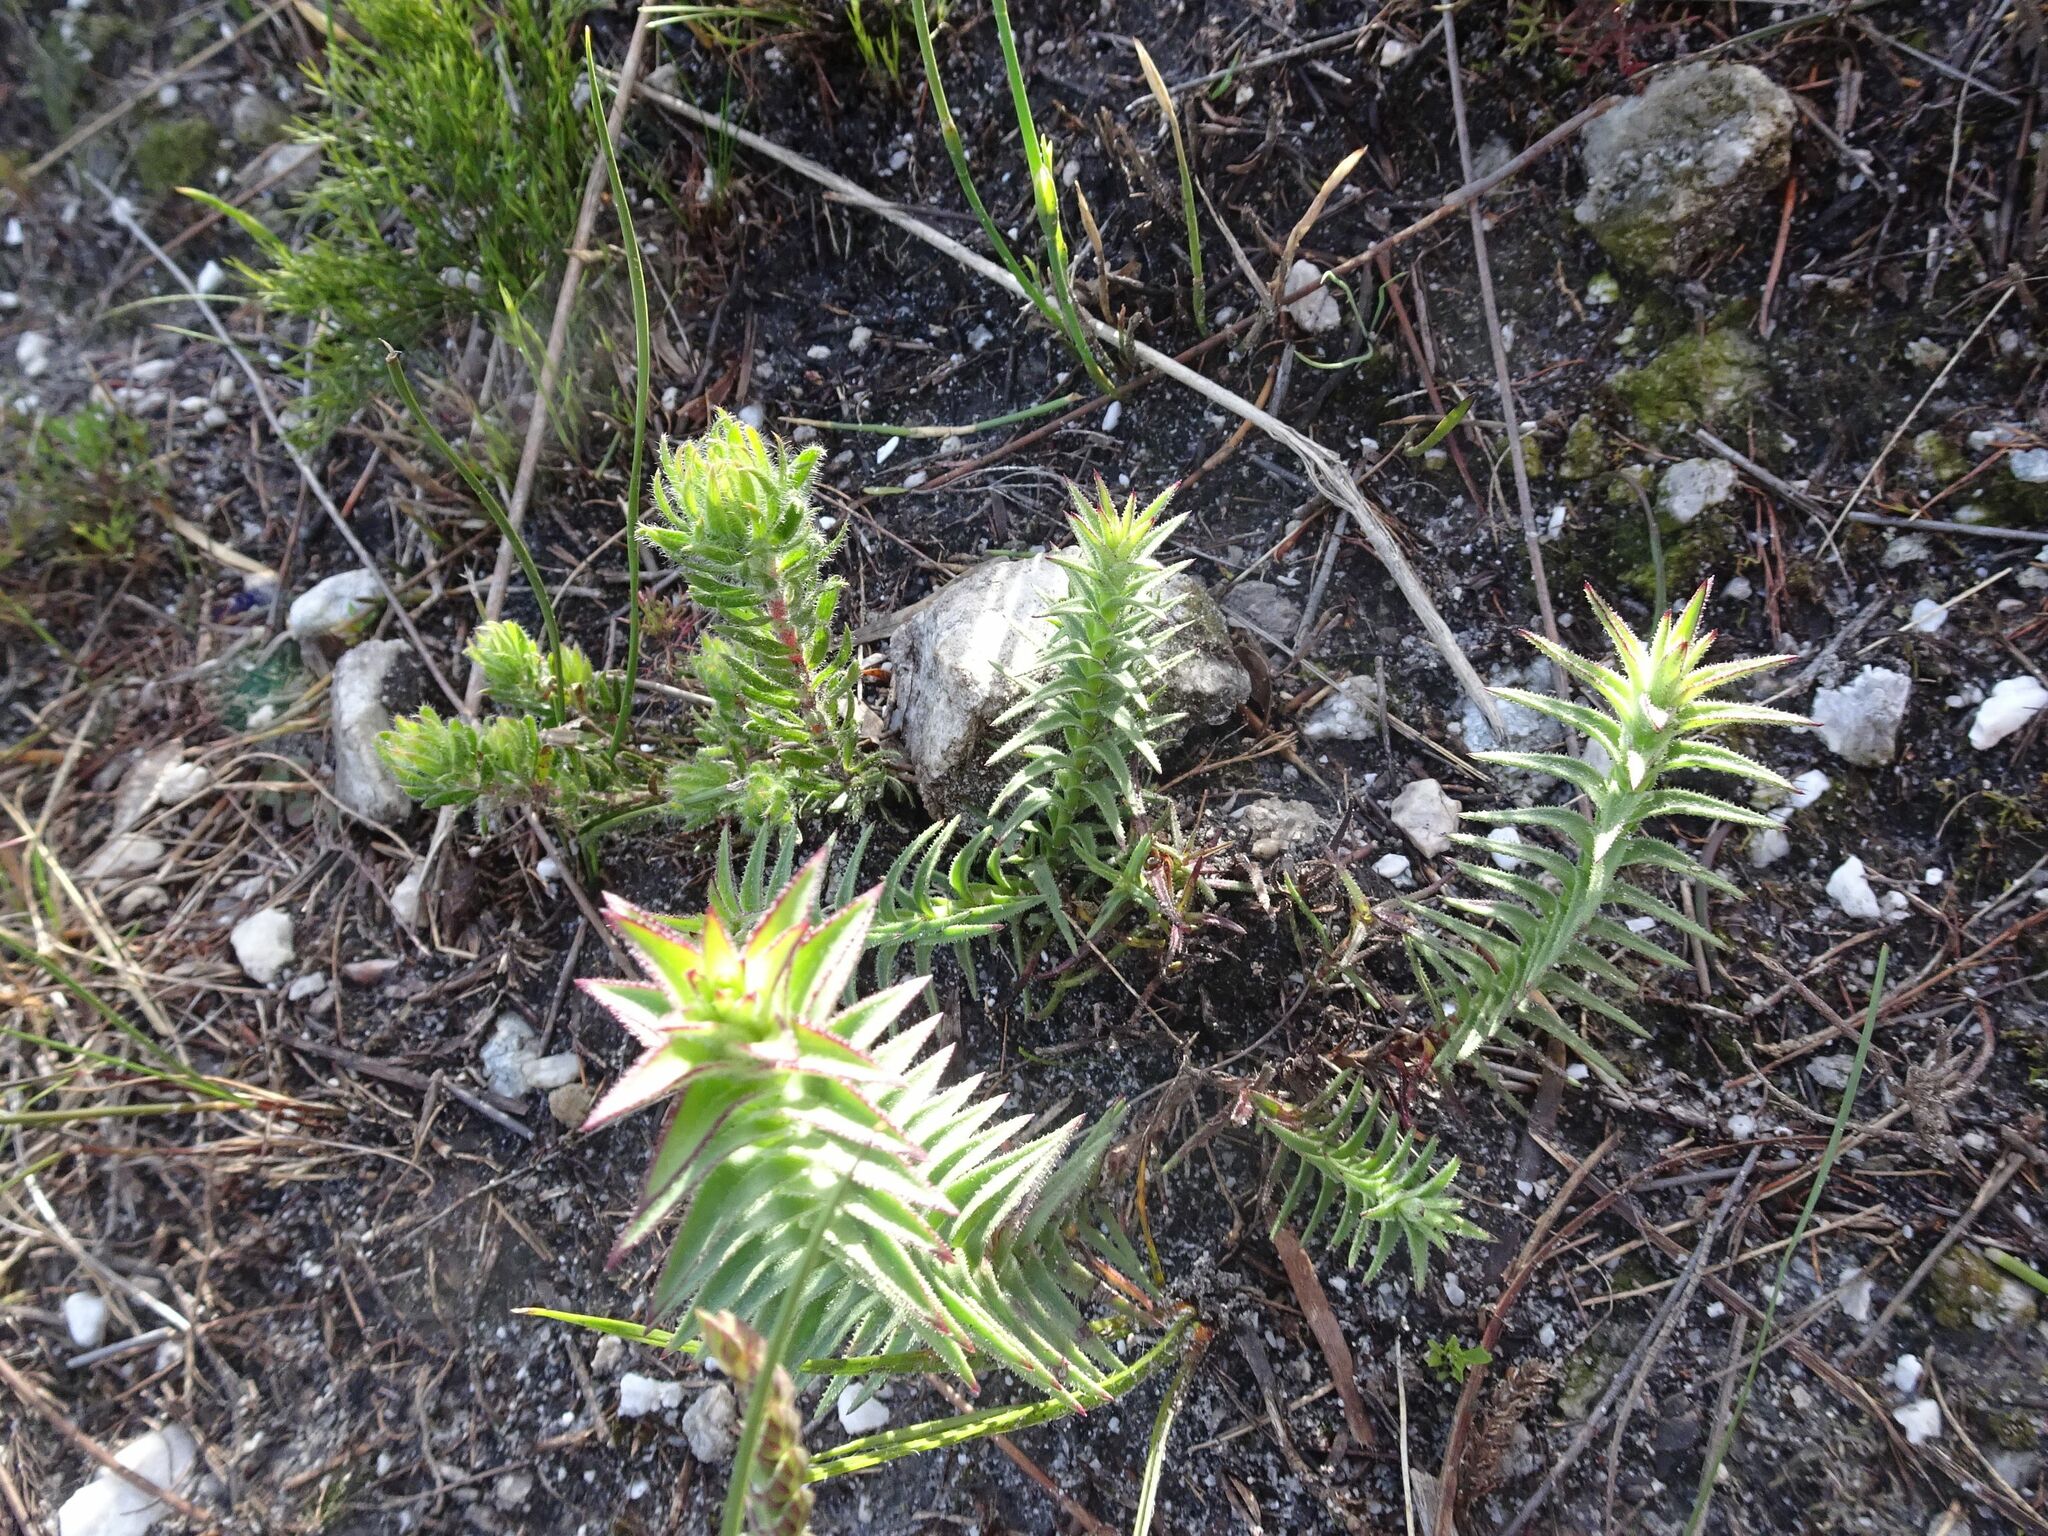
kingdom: Plantae
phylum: Tracheophyta
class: Magnoliopsida
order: Asterales
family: Asteraceae
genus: Oedera
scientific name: Oedera capensis
